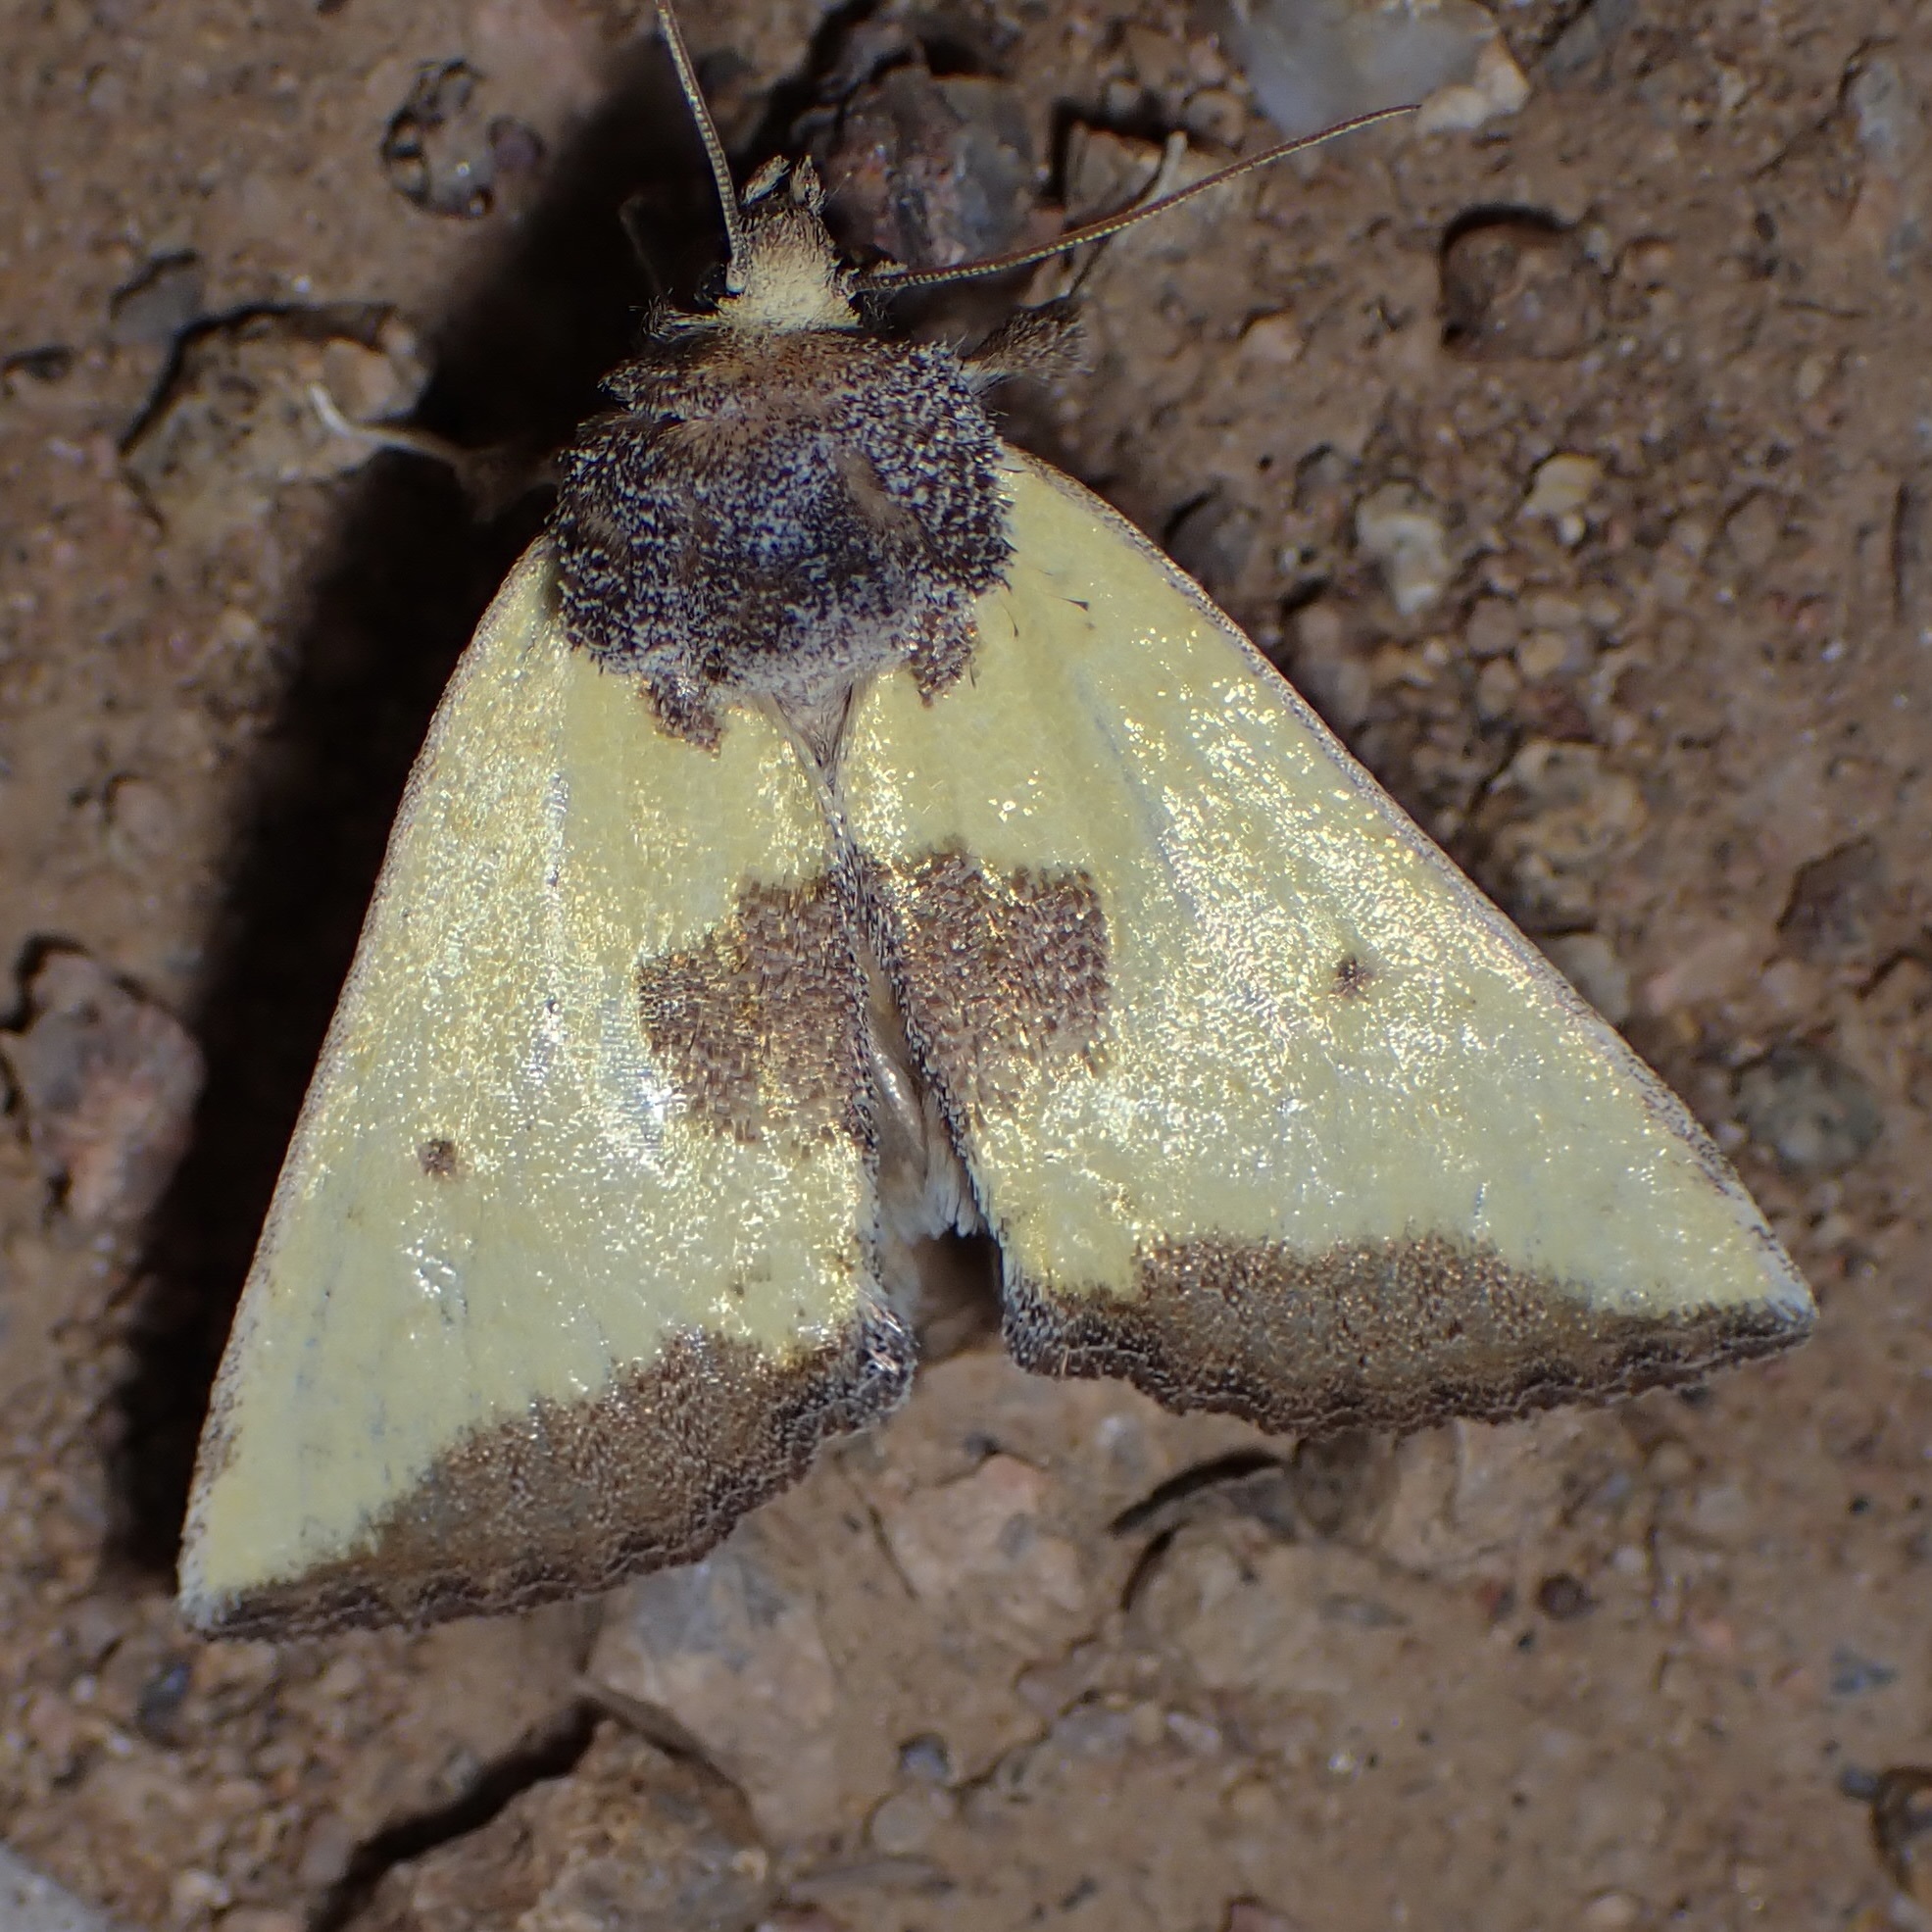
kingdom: Animalia
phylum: Arthropoda
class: Insecta
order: Lepidoptera
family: Noctuidae
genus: Stiria
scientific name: Stiria sulphurea
